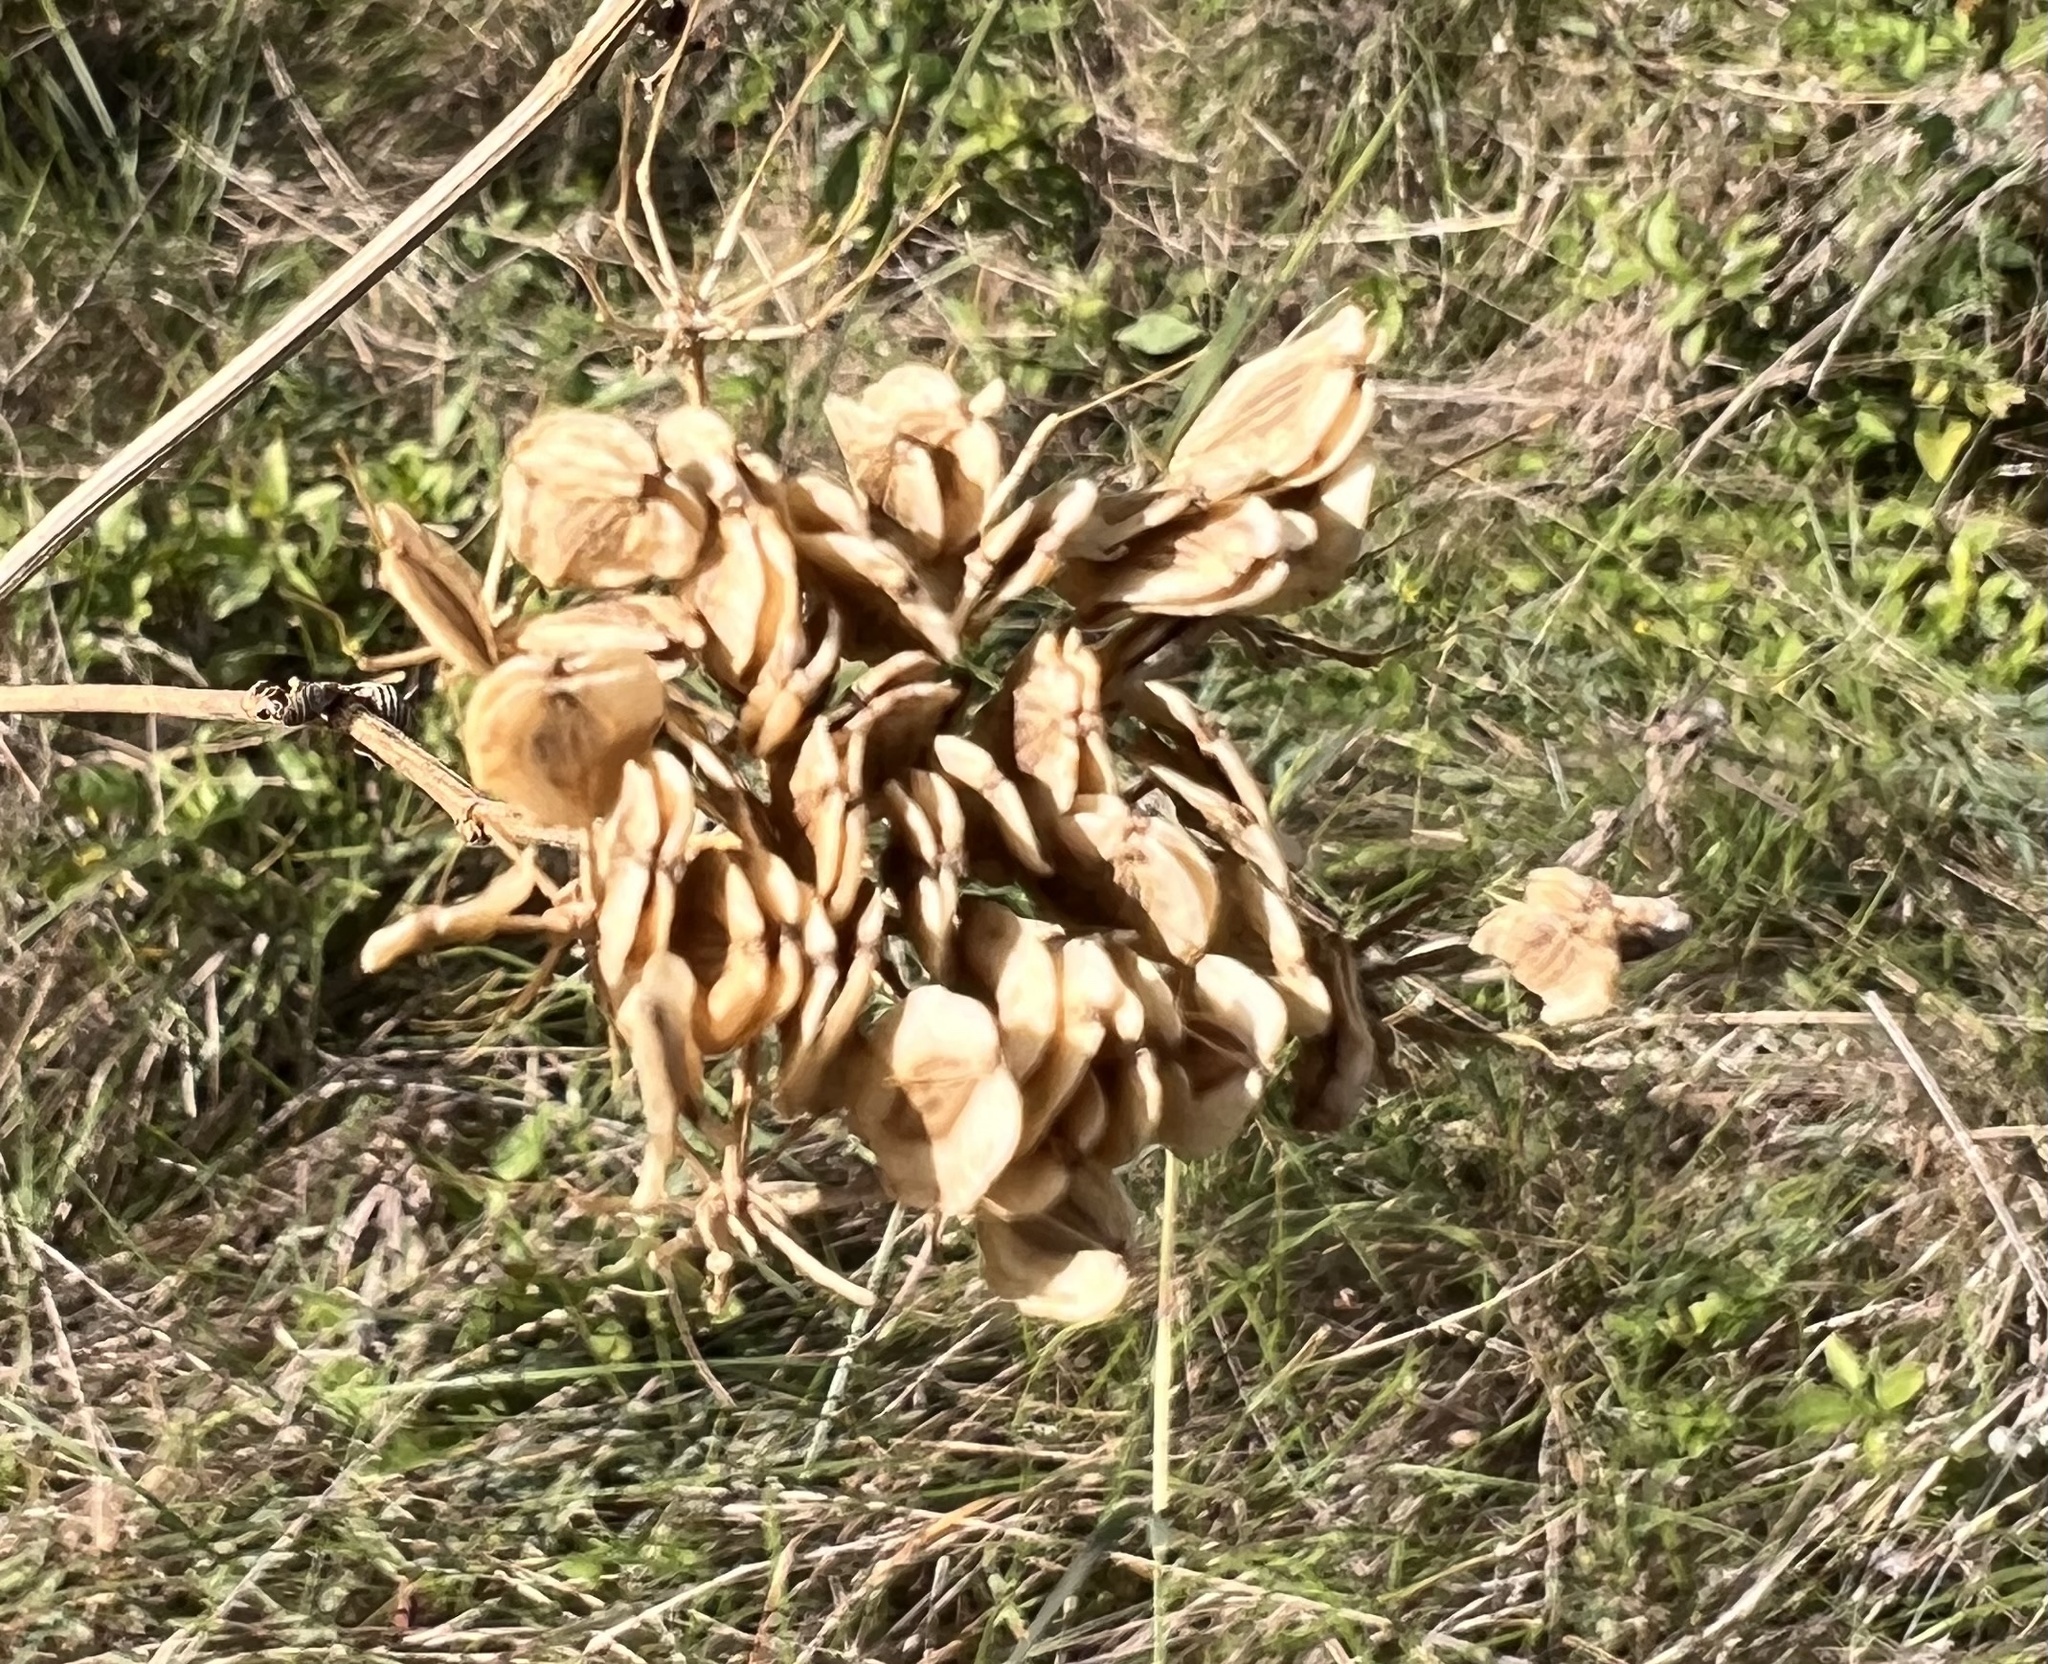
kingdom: Plantae
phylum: Tracheophyta
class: Magnoliopsida
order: Apiales
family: Apiaceae
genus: Polytaenia
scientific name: Polytaenia texana
